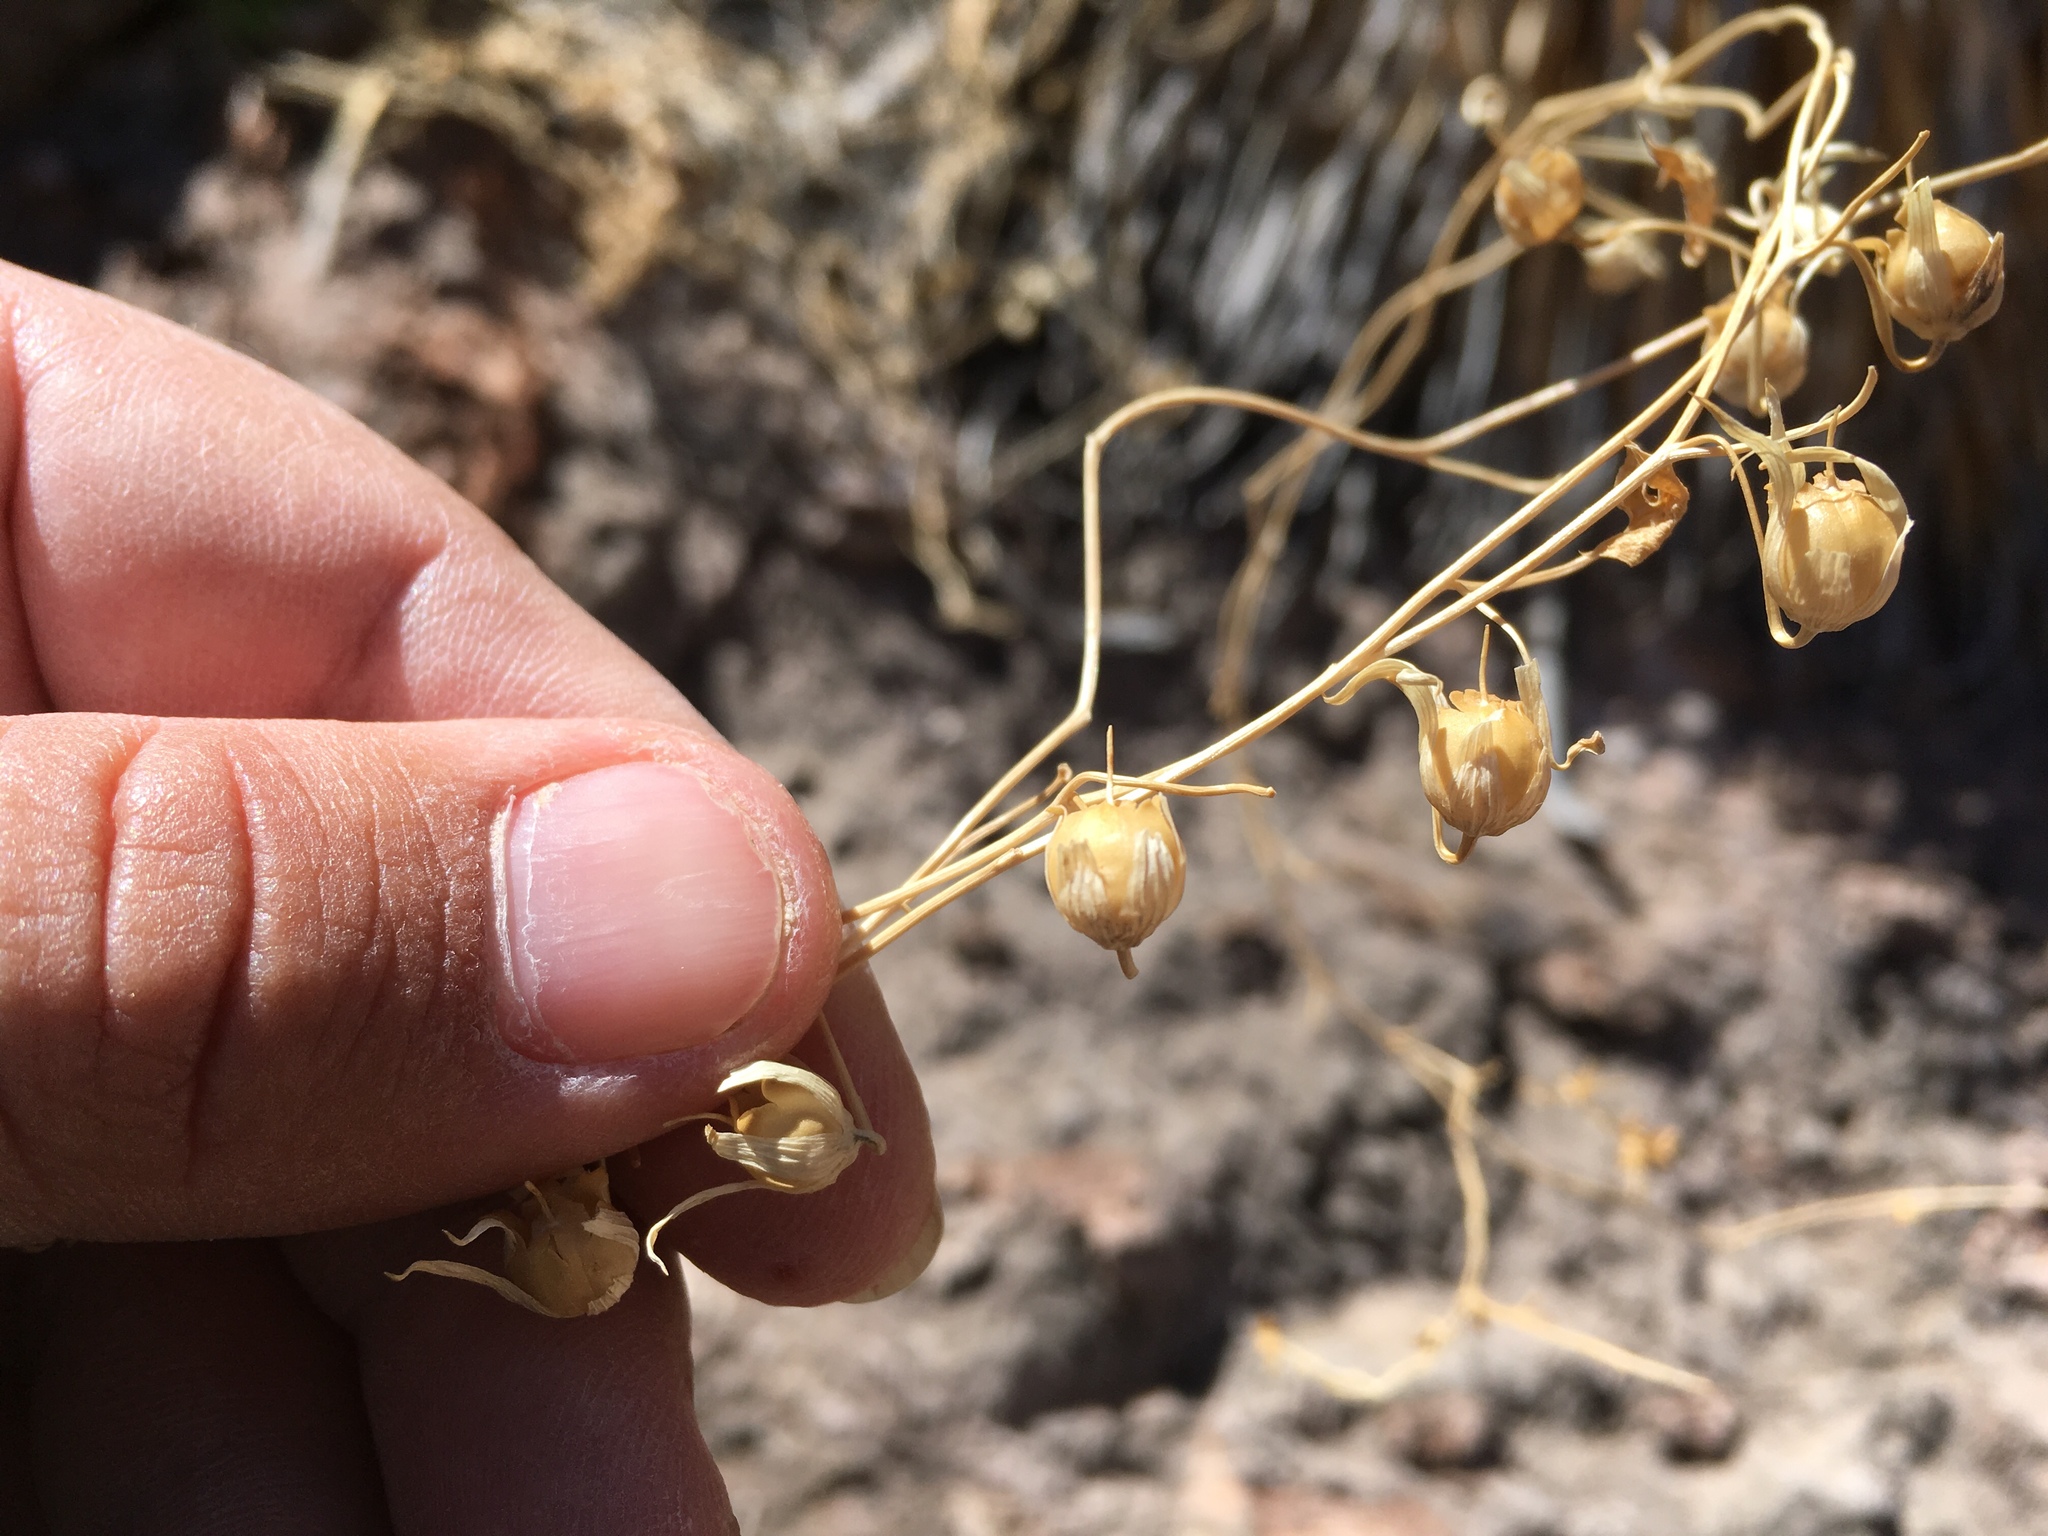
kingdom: Plantae
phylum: Tracheophyta
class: Magnoliopsida
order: Lamiales
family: Plantaginaceae
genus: Maurandella
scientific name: Maurandella antirrhiniflora
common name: Violet twining-snapdragon
